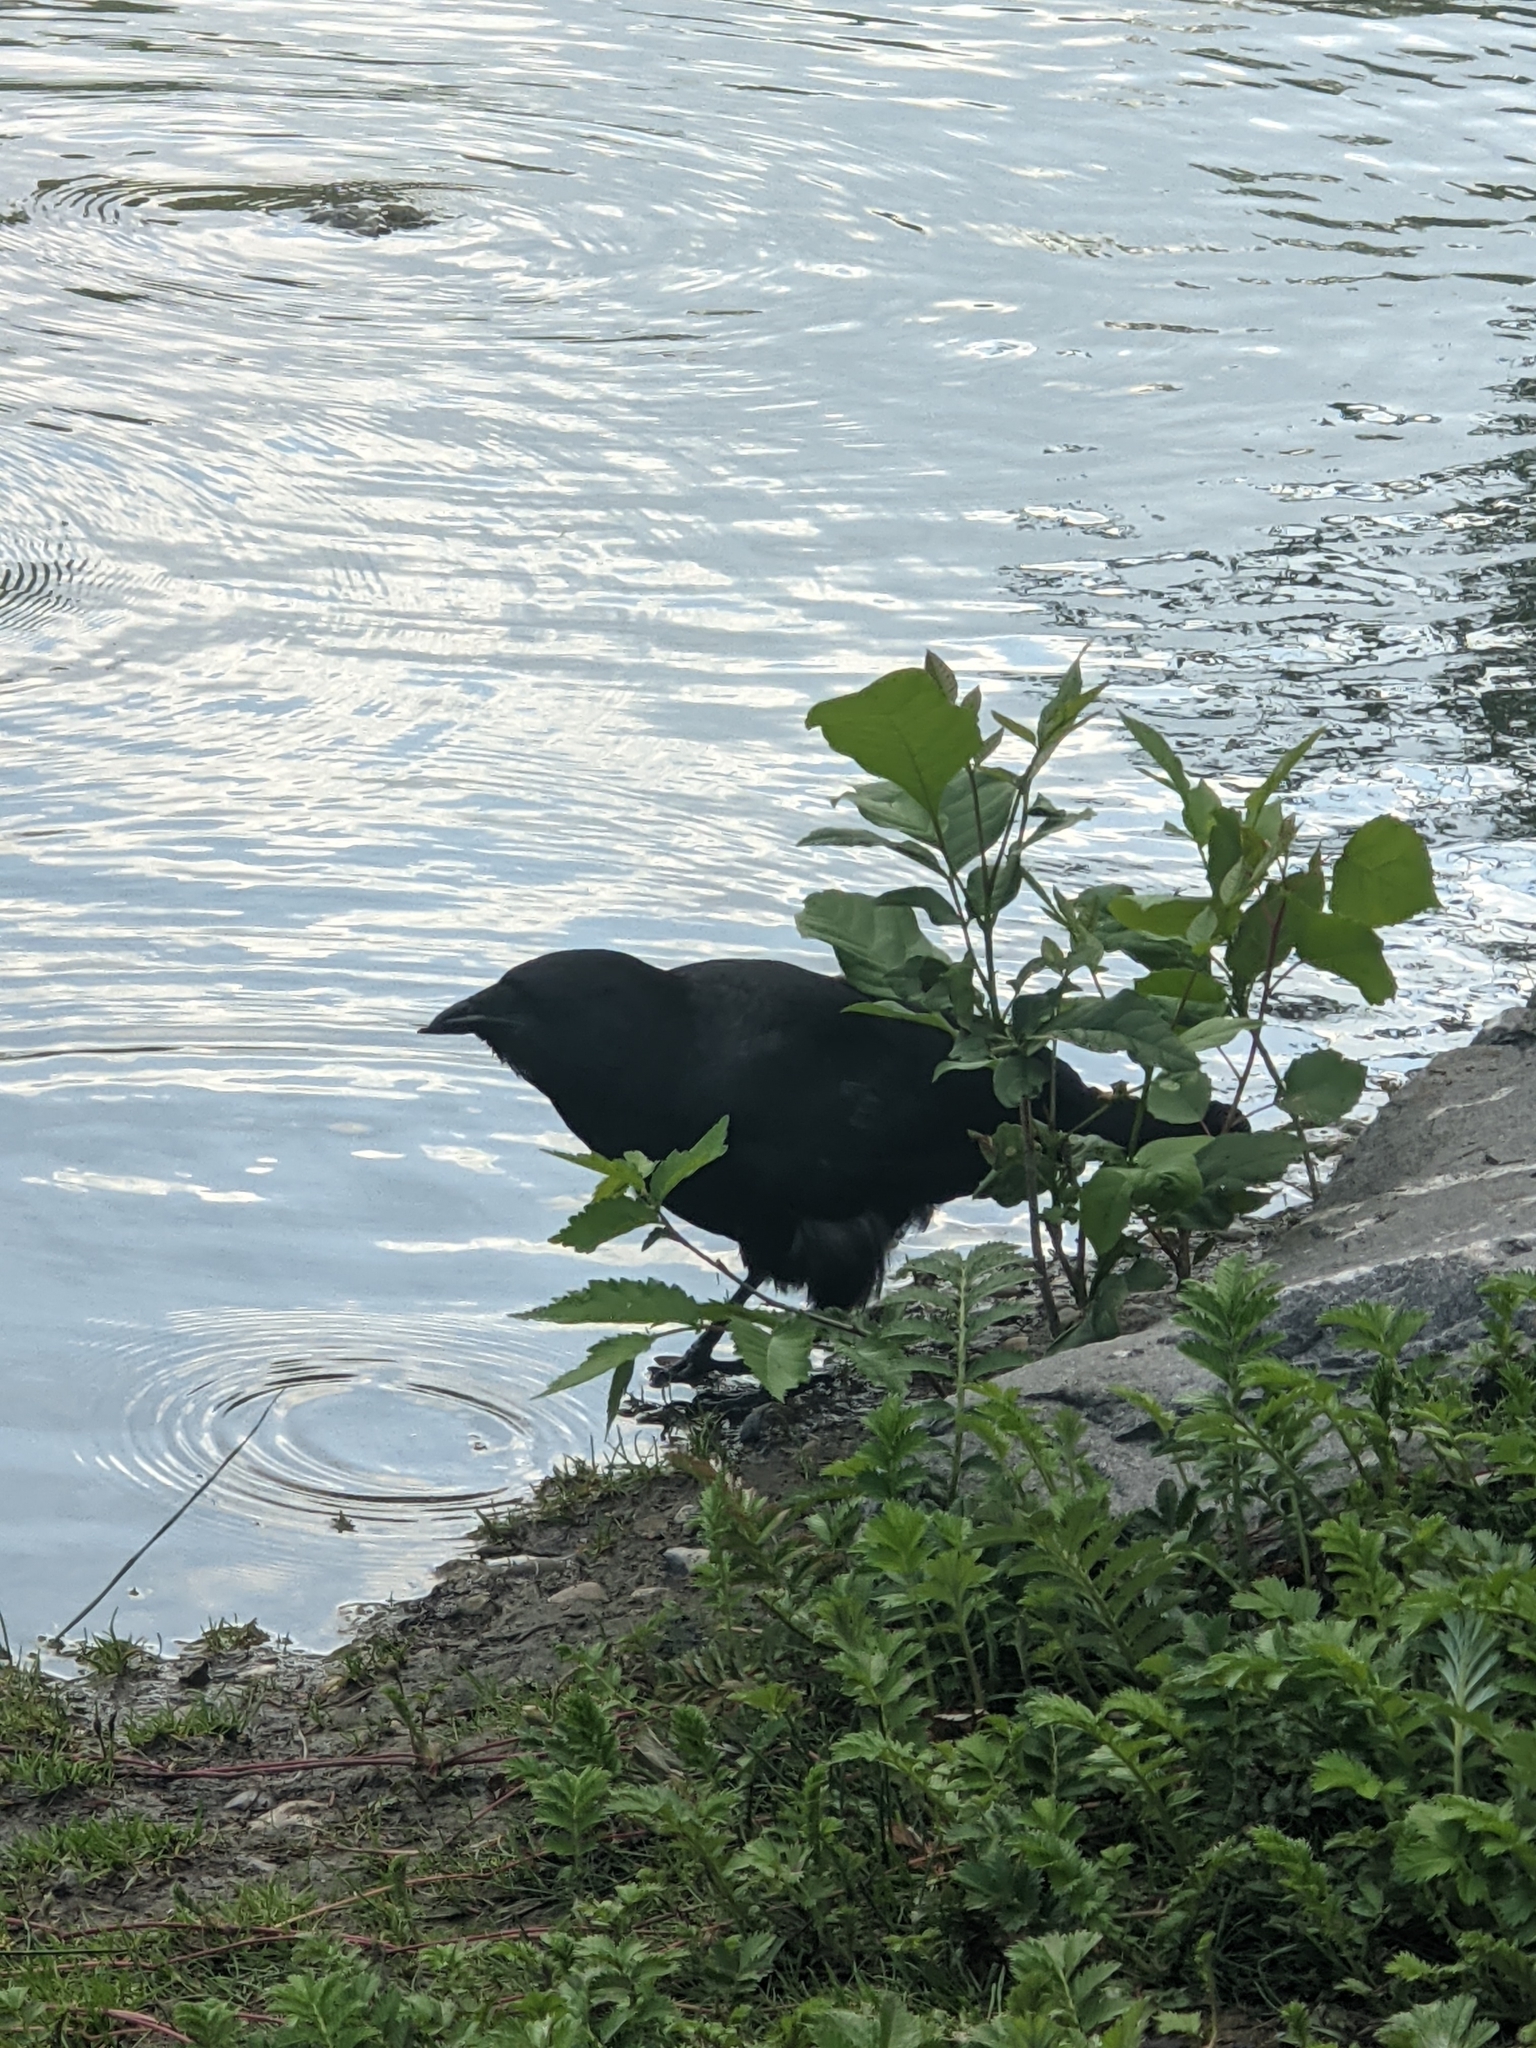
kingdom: Animalia
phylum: Chordata
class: Aves
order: Passeriformes
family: Corvidae
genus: Corvus
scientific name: Corvus brachyrhynchos
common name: American crow
